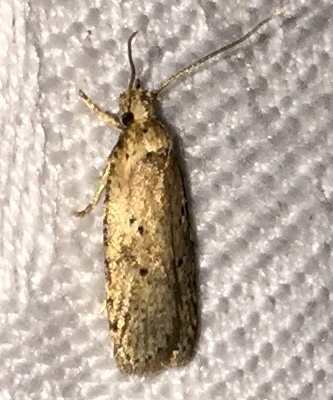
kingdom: Animalia
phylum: Arthropoda
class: Insecta
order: Lepidoptera
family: Depressariidae
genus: Agonopterix
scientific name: Agonopterix canadensis
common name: Canadian agonopterix moth
